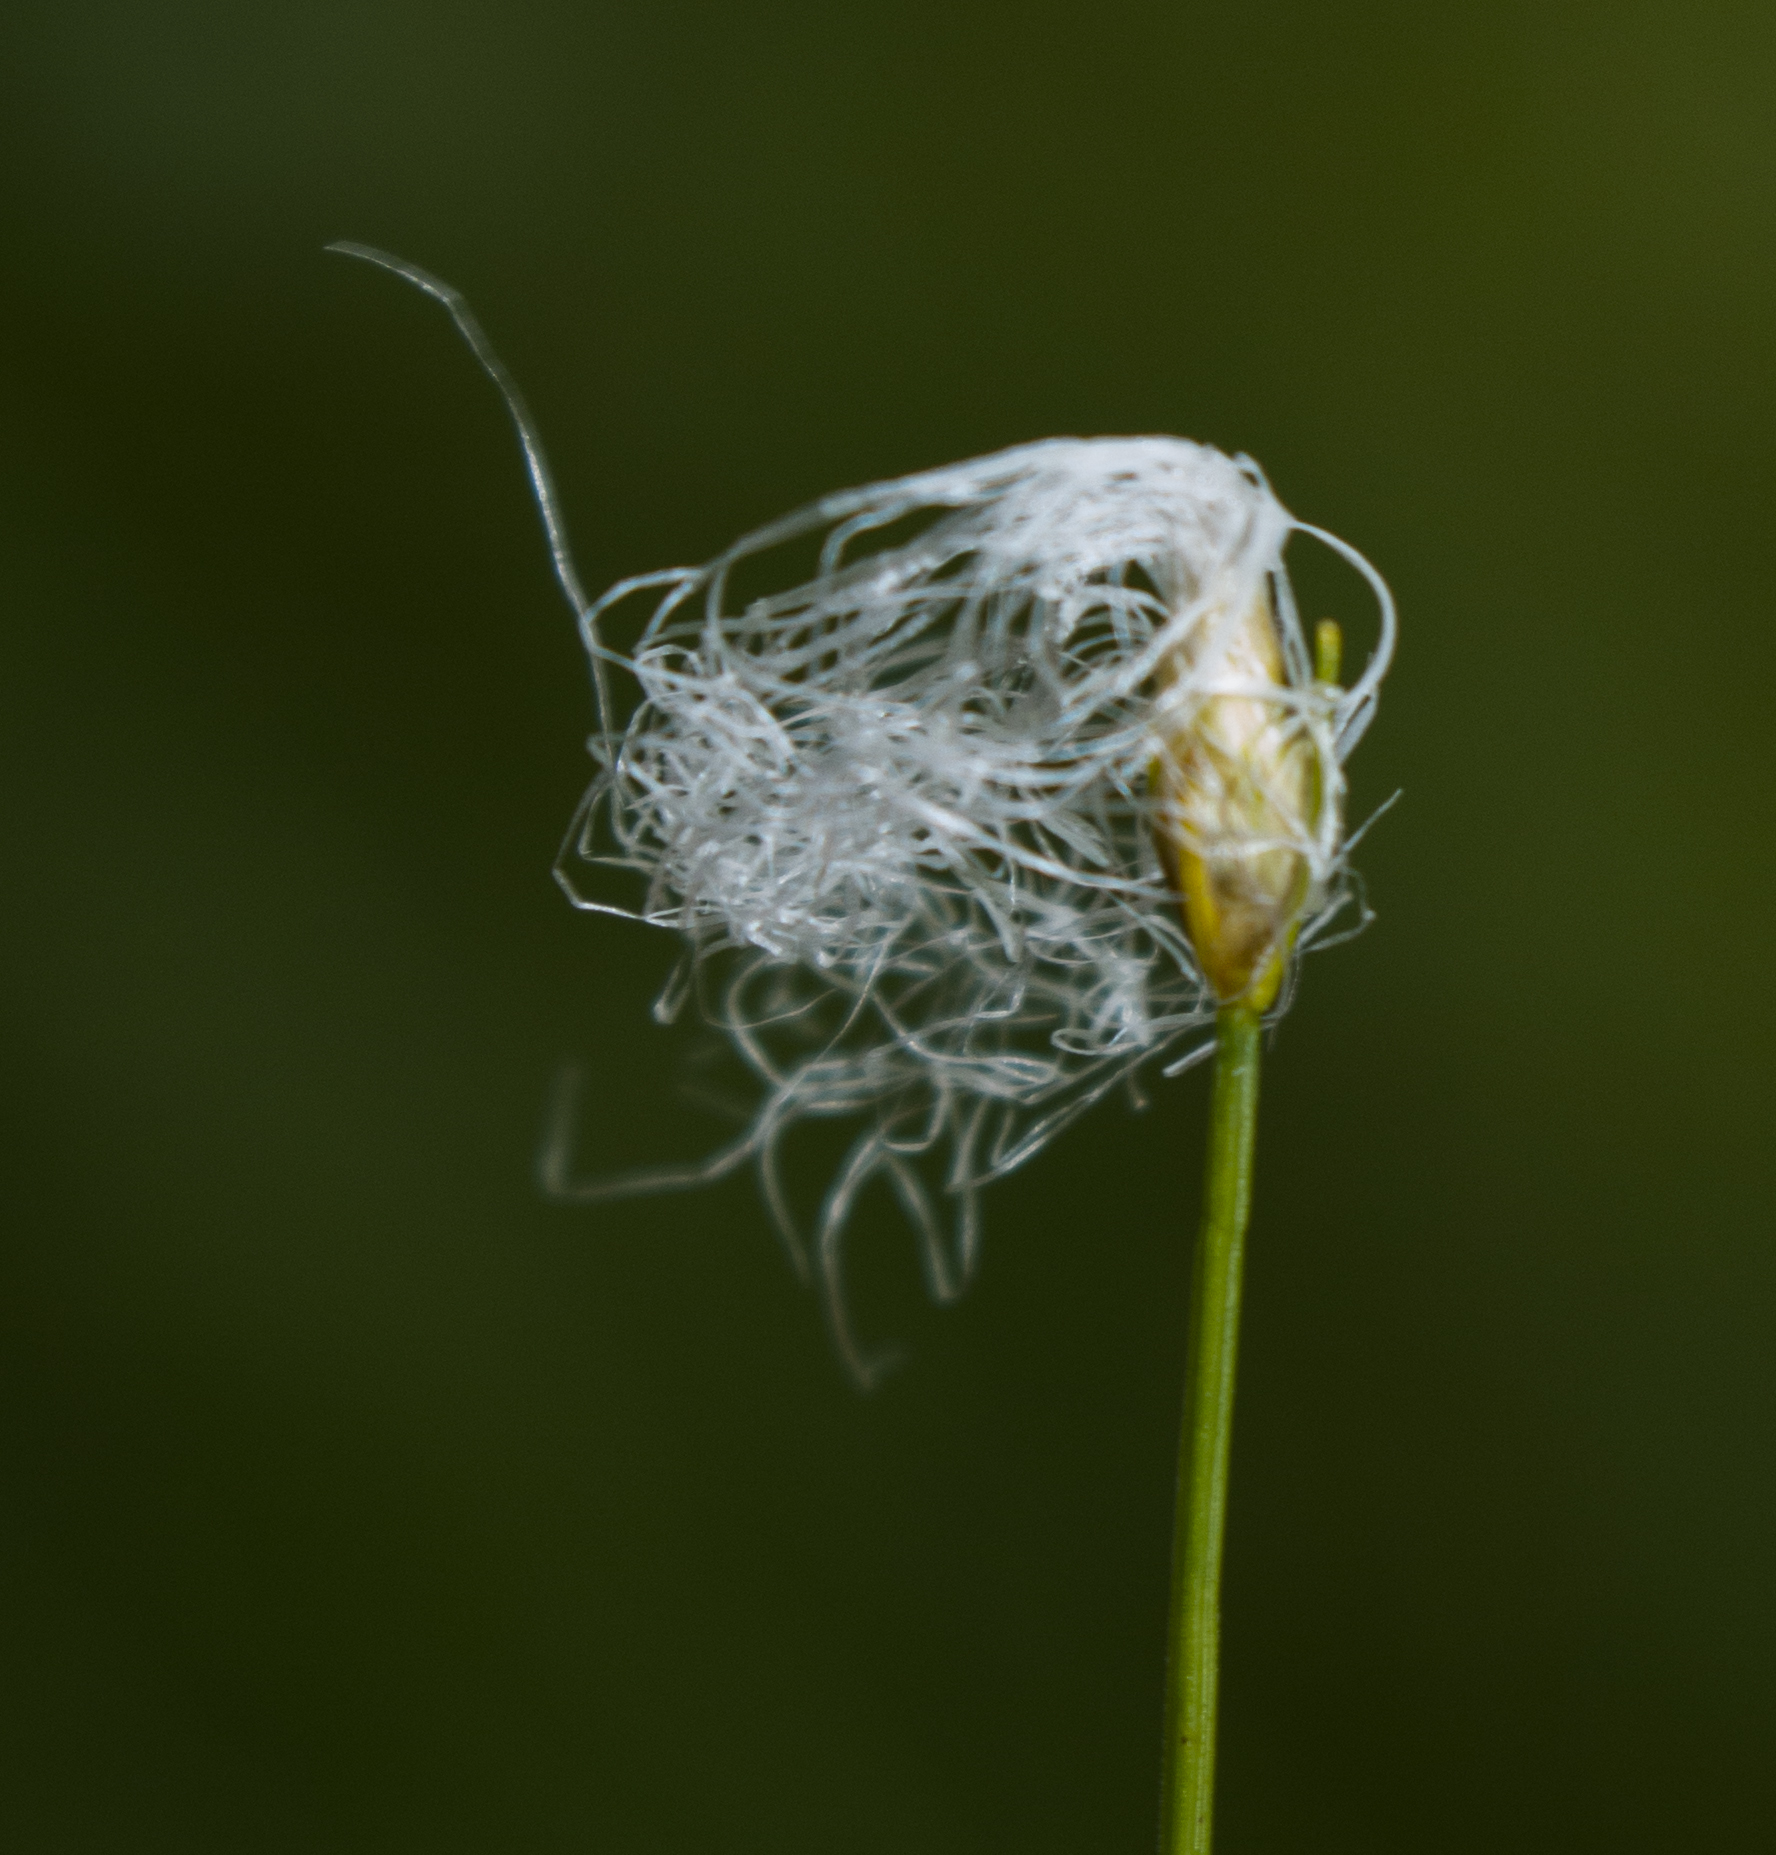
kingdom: Plantae
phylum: Tracheophyta
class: Liliopsida
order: Poales
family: Cyperaceae
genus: Trichophorum
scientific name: Trichophorum alpinum
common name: Alpine bulrush
